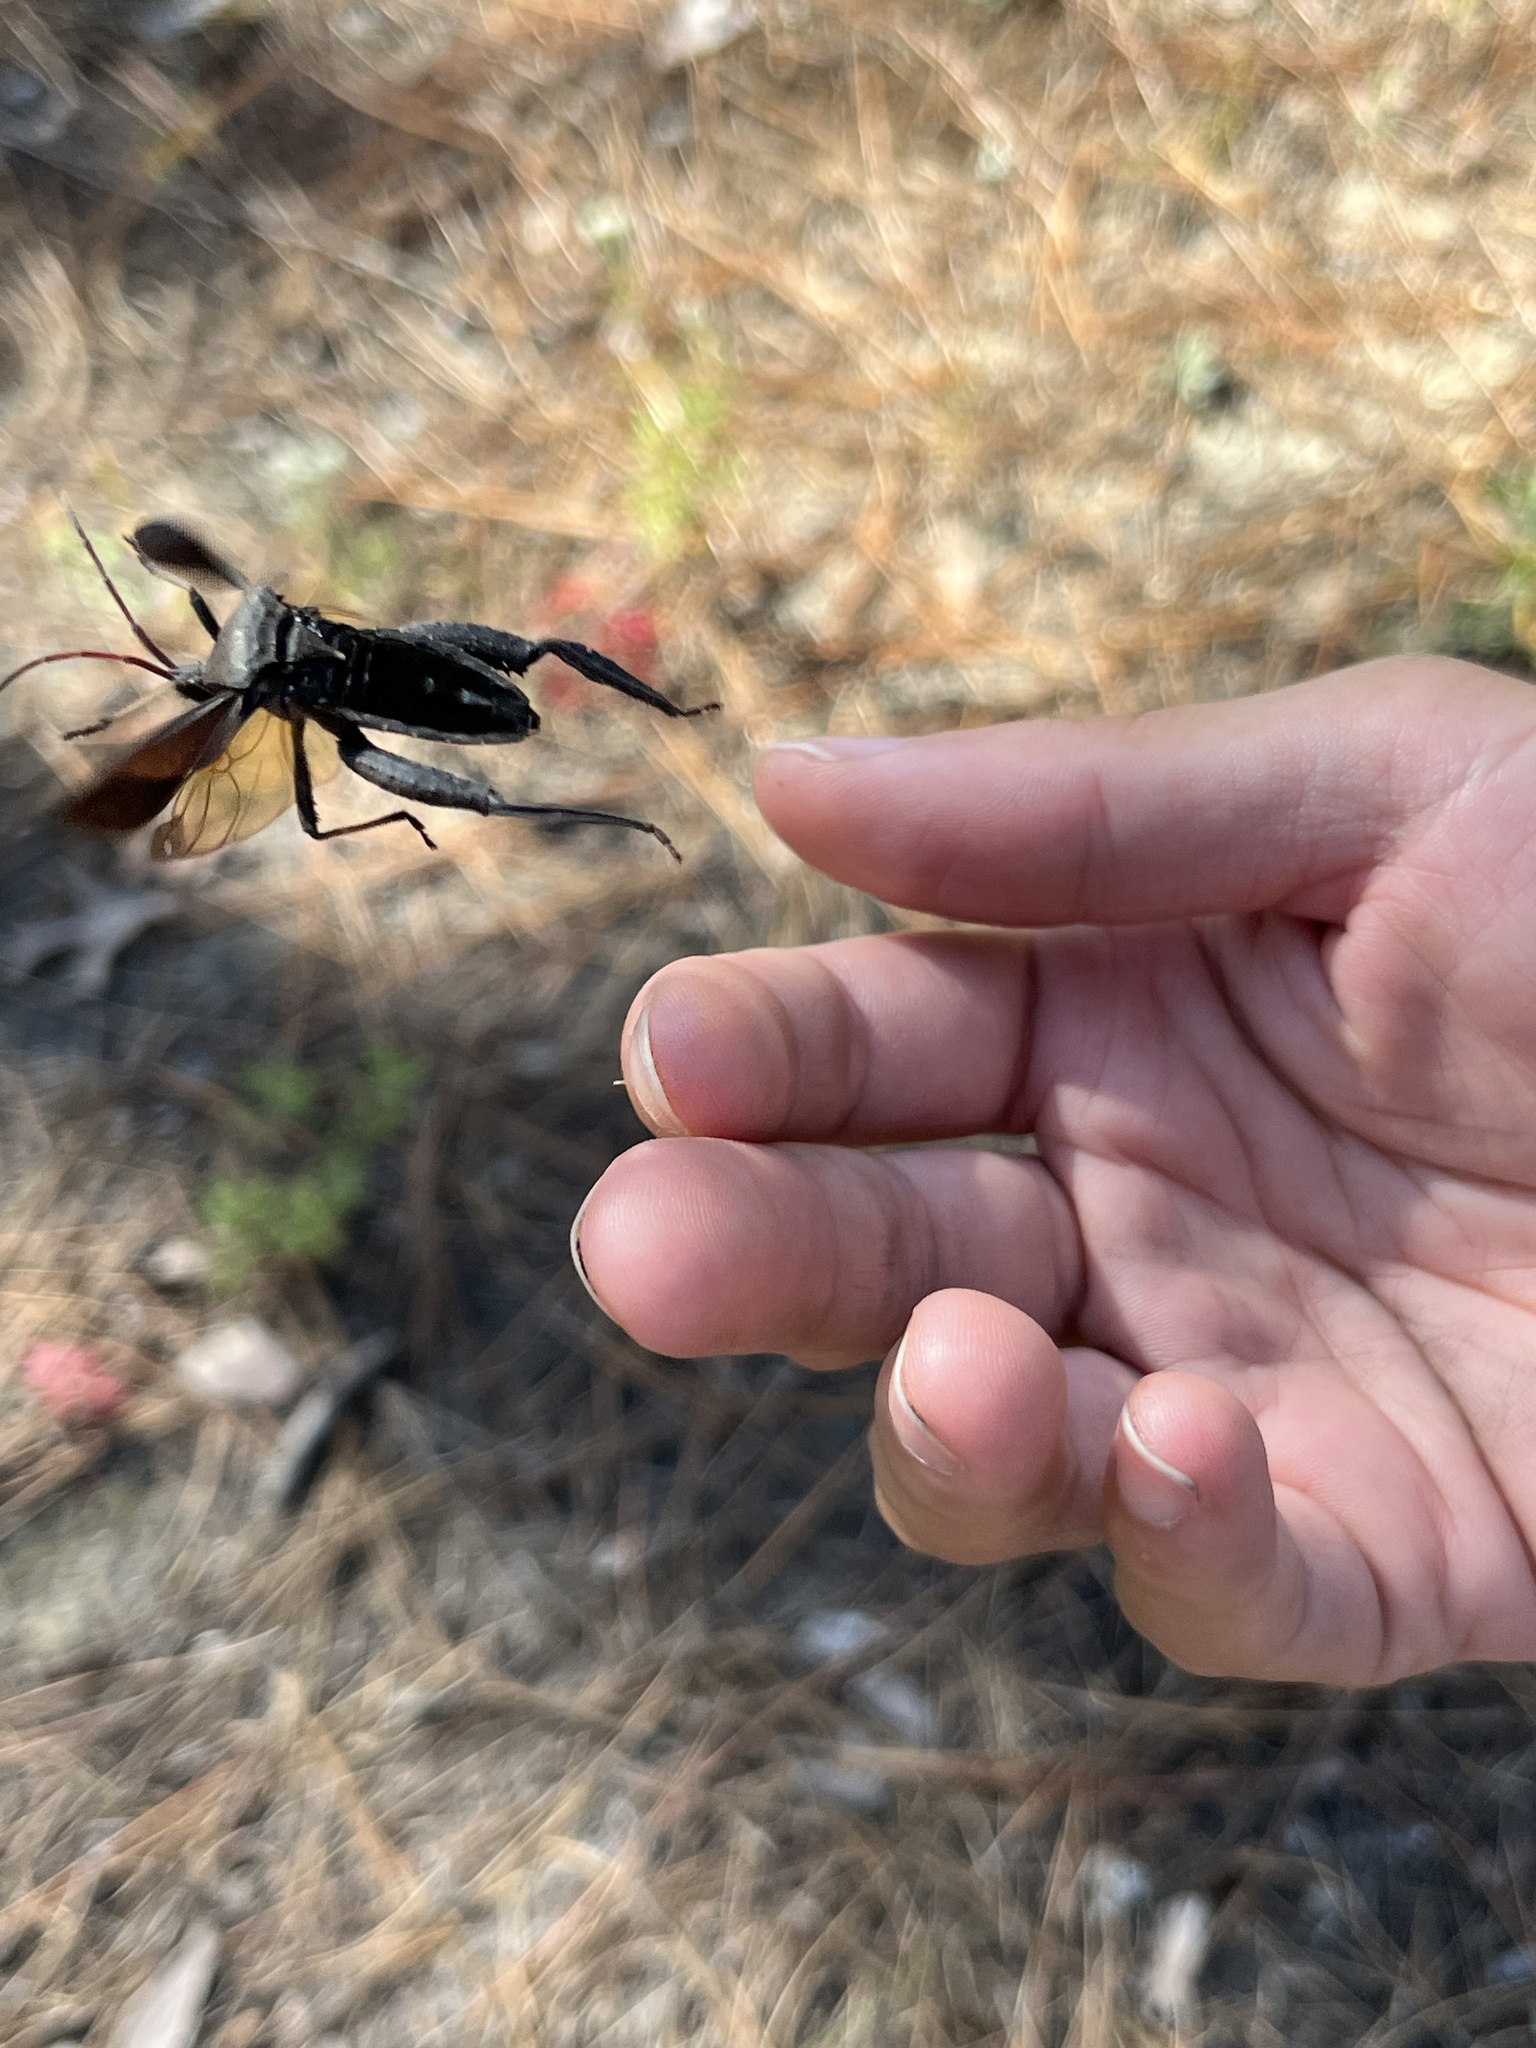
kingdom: Animalia
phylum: Arthropoda
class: Insecta
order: Hemiptera
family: Coreidae
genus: Acanthocephala
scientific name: Acanthocephala femorata
